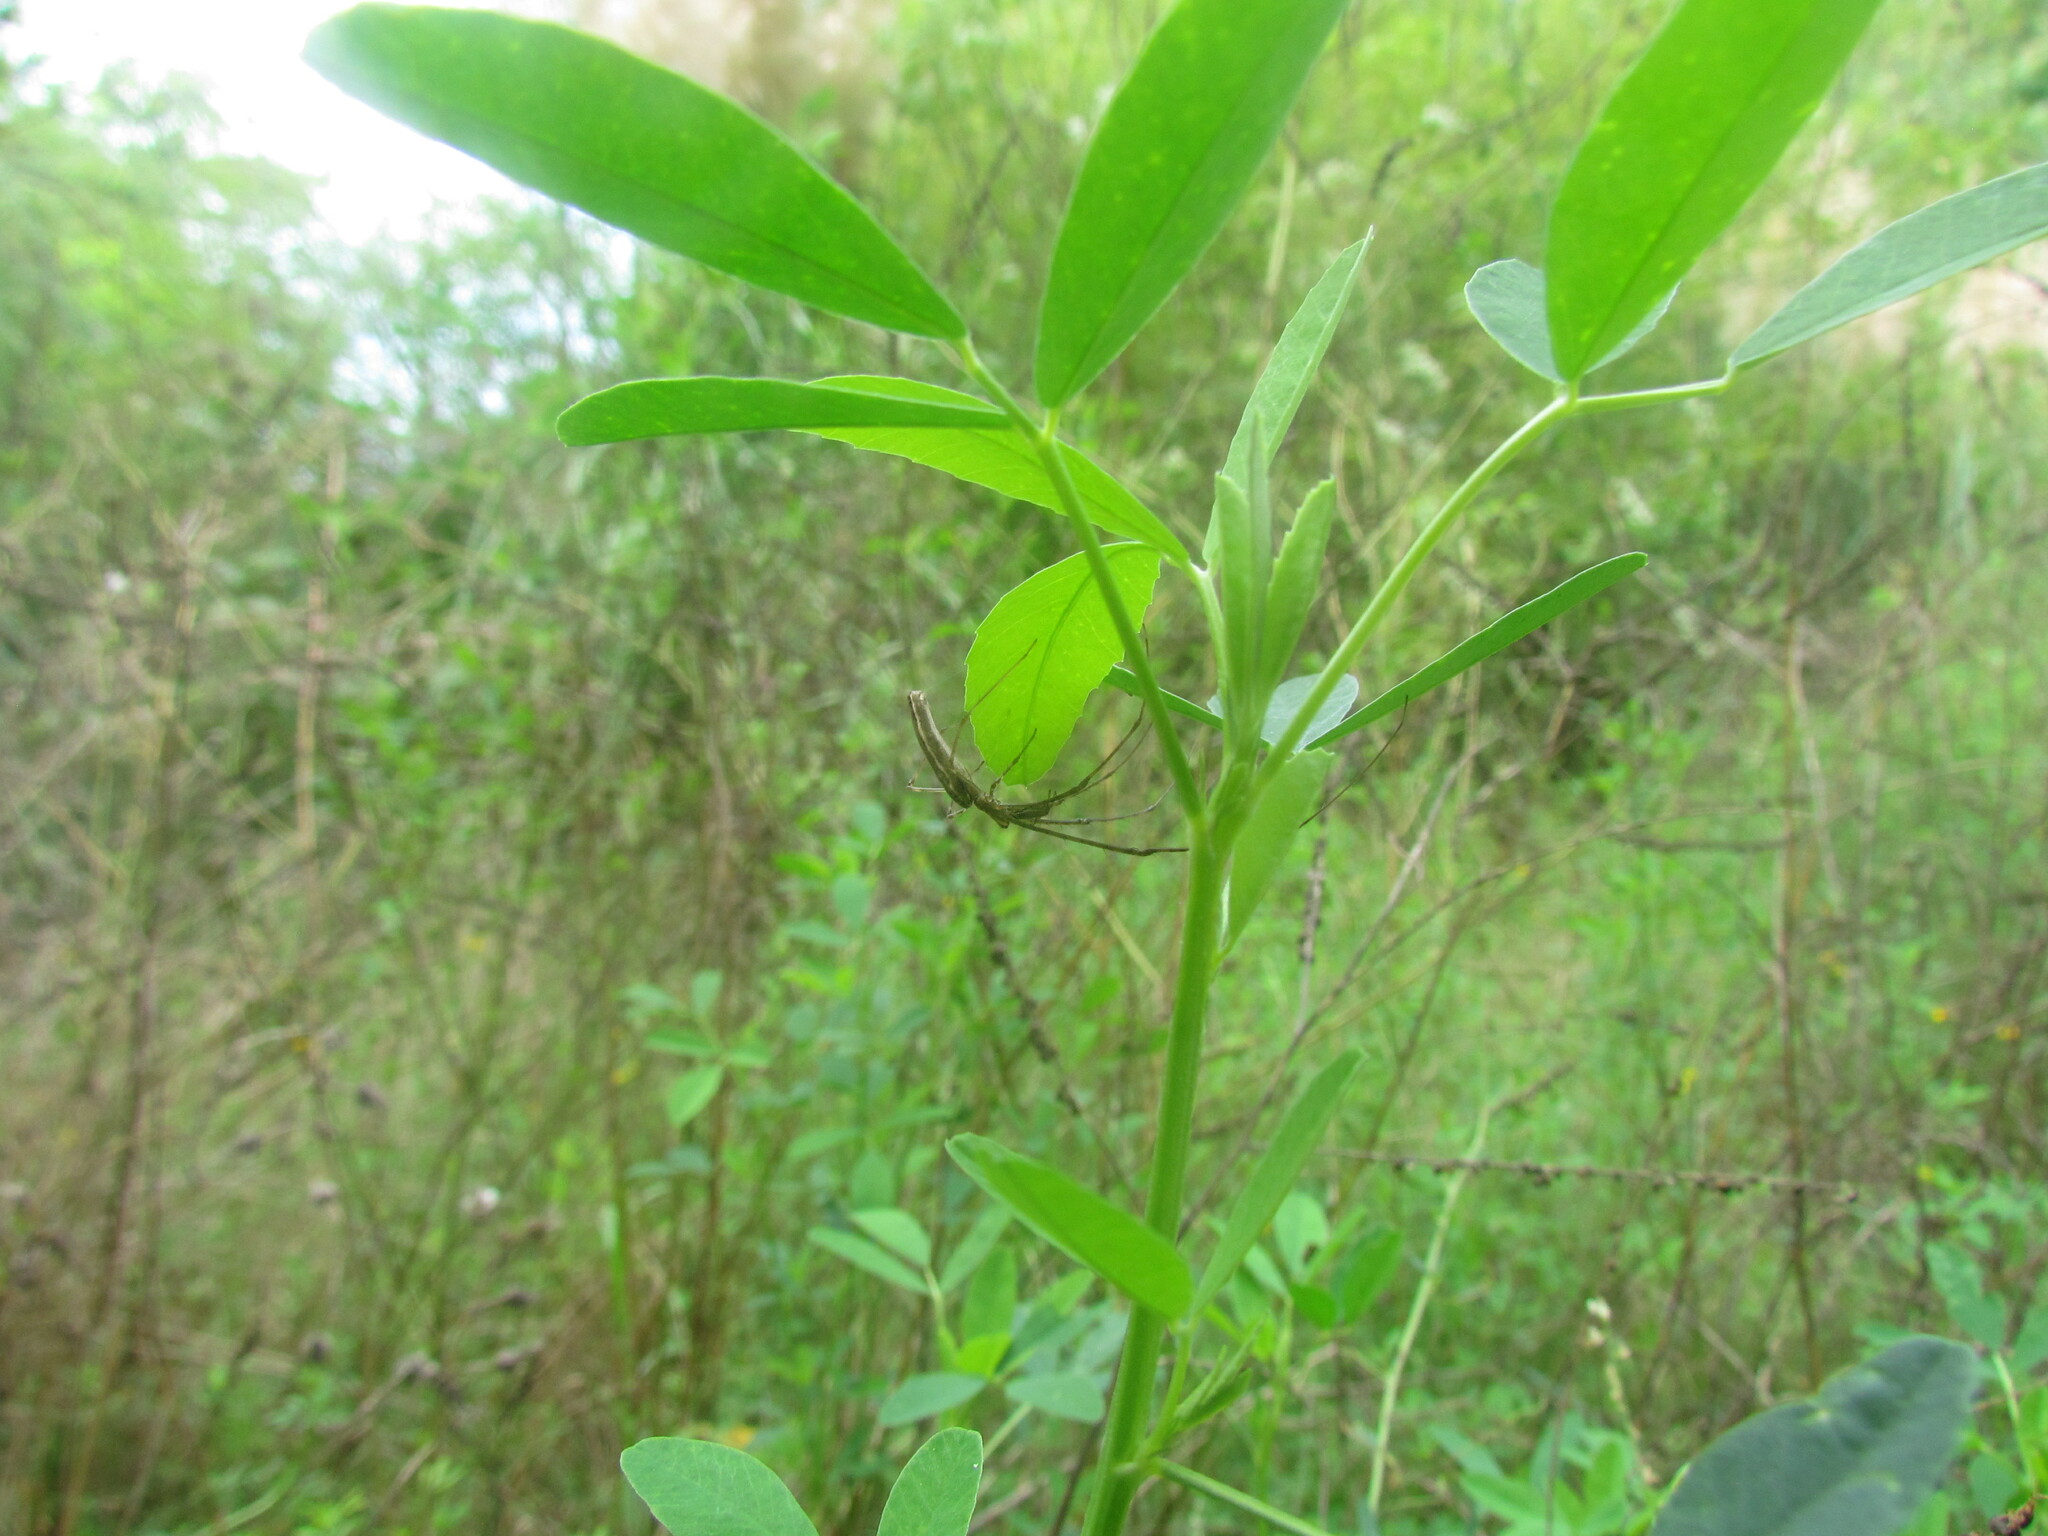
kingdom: Animalia
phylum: Arthropoda
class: Arachnida
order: Araneae
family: Tetragnathidae
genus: Tetragnatha
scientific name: Tetragnatha
